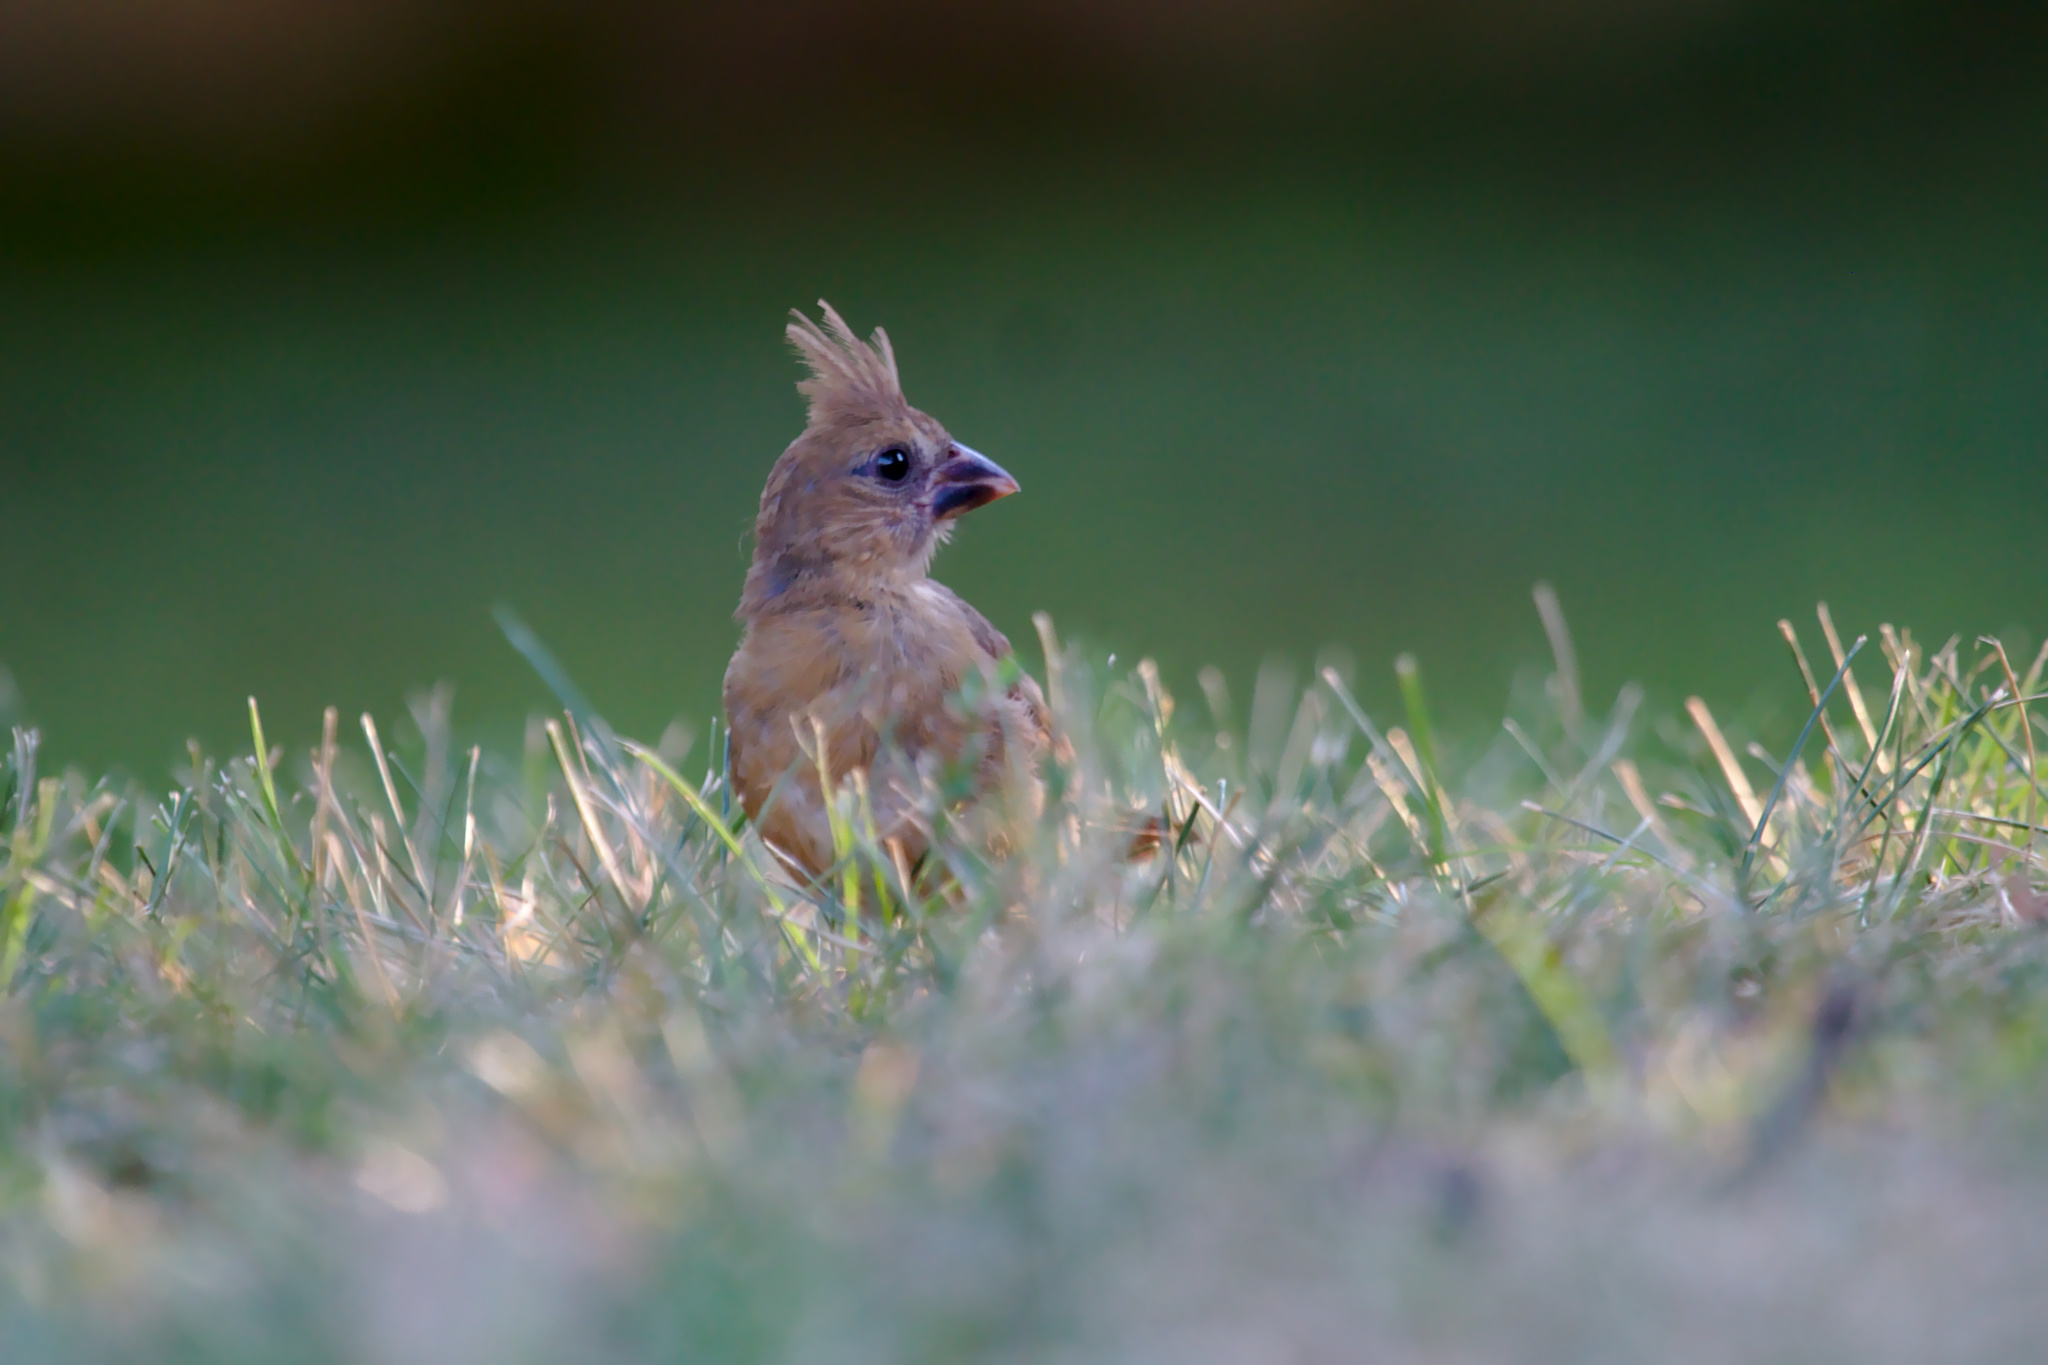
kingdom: Animalia
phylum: Chordata
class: Aves
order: Passeriformes
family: Cardinalidae
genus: Cardinalis
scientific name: Cardinalis cardinalis
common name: Northern cardinal
